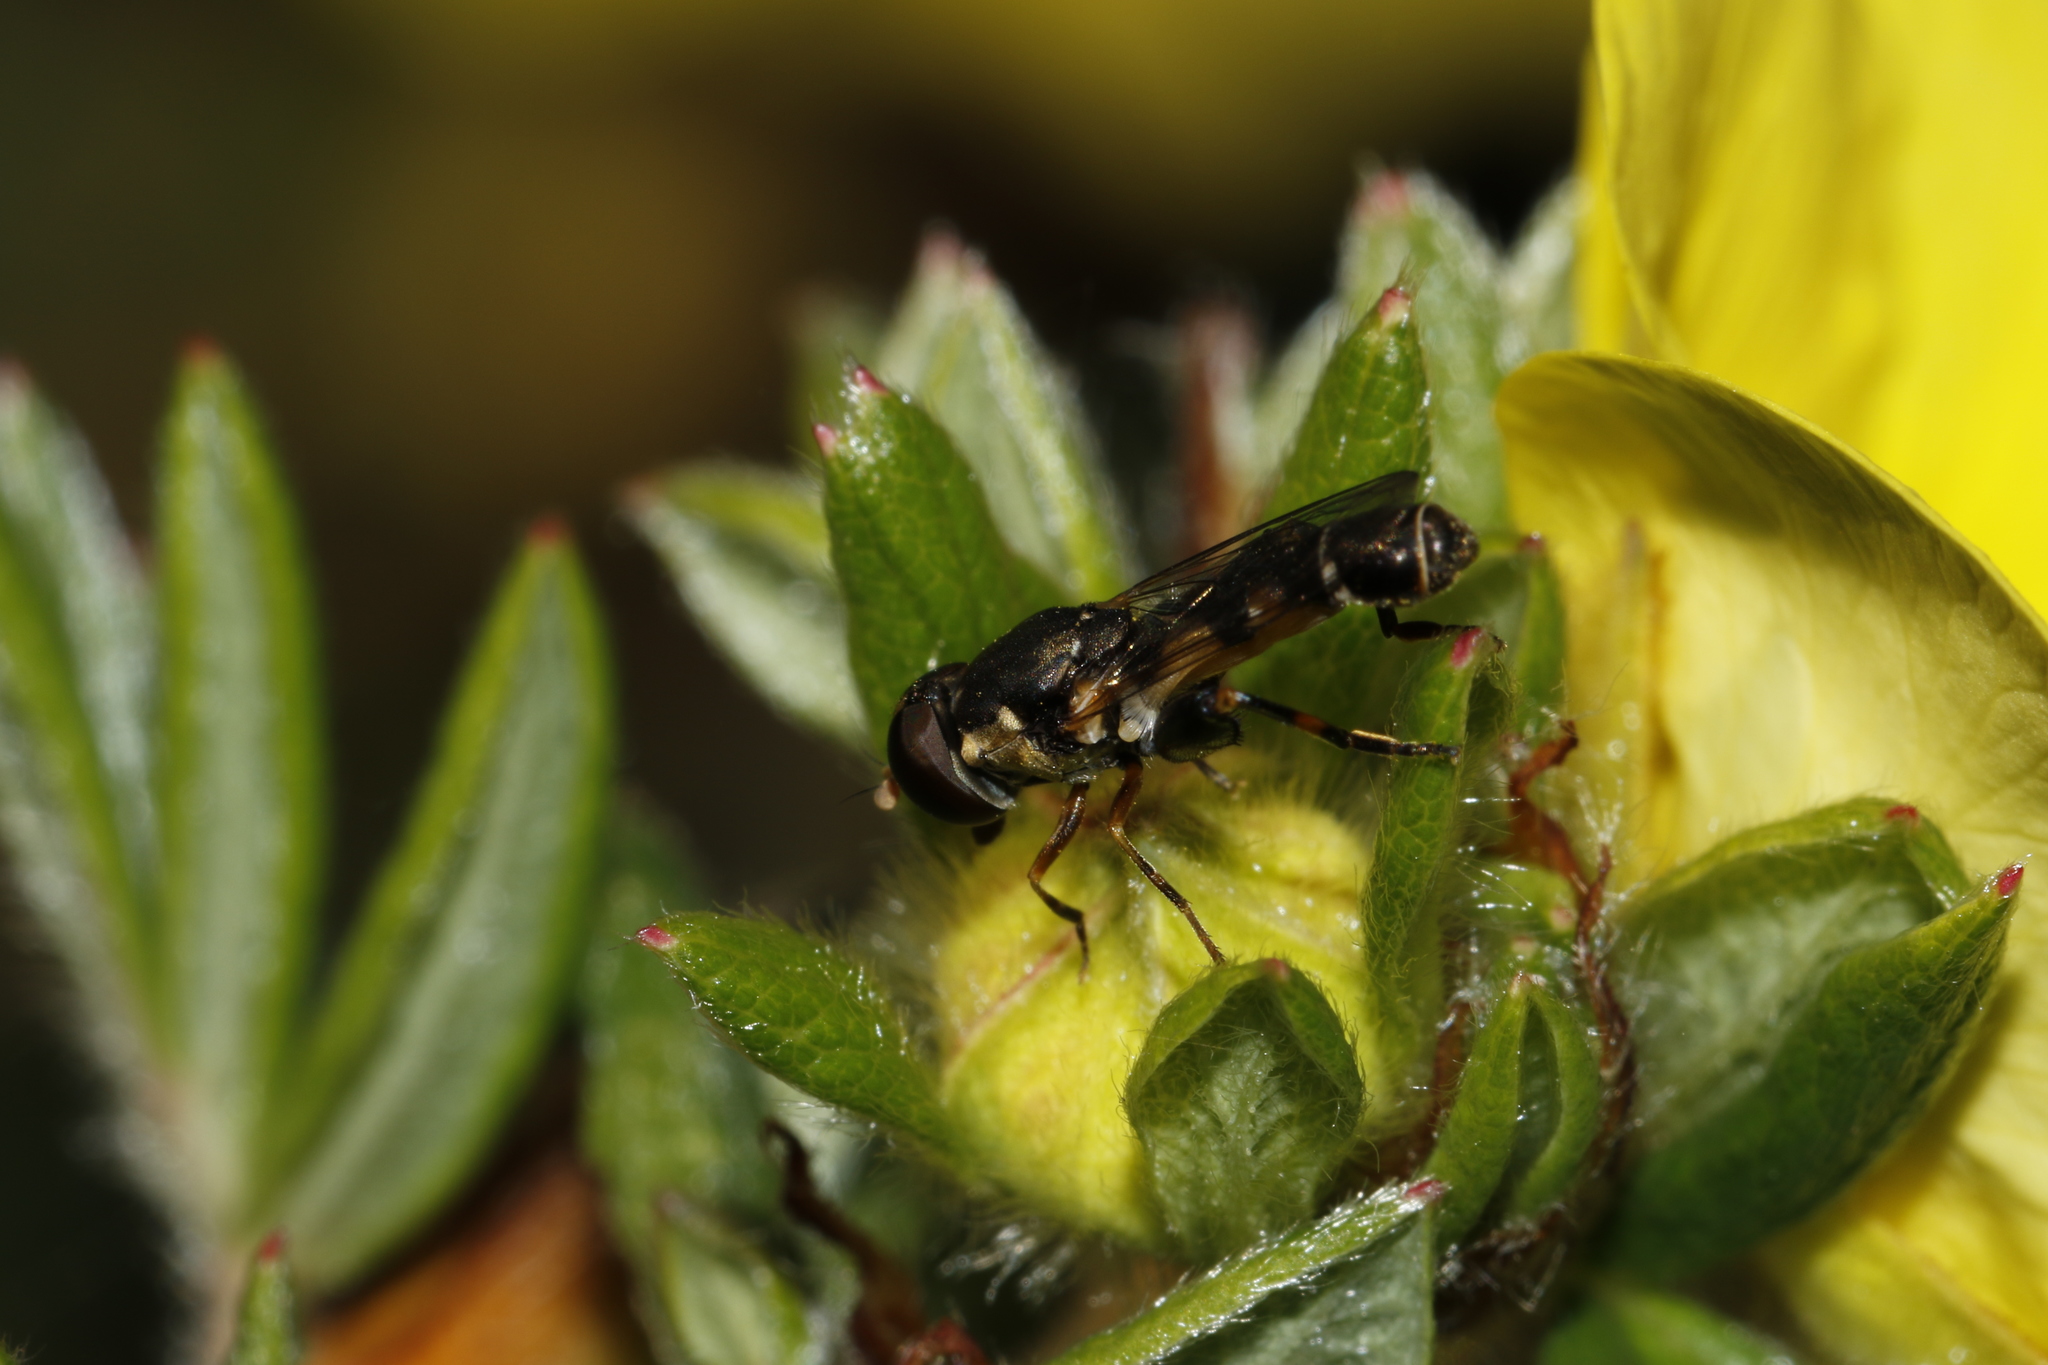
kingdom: Animalia
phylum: Arthropoda
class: Insecta
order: Diptera
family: Syrphidae
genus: Syritta
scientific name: Syritta pipiens
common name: Hover fly
